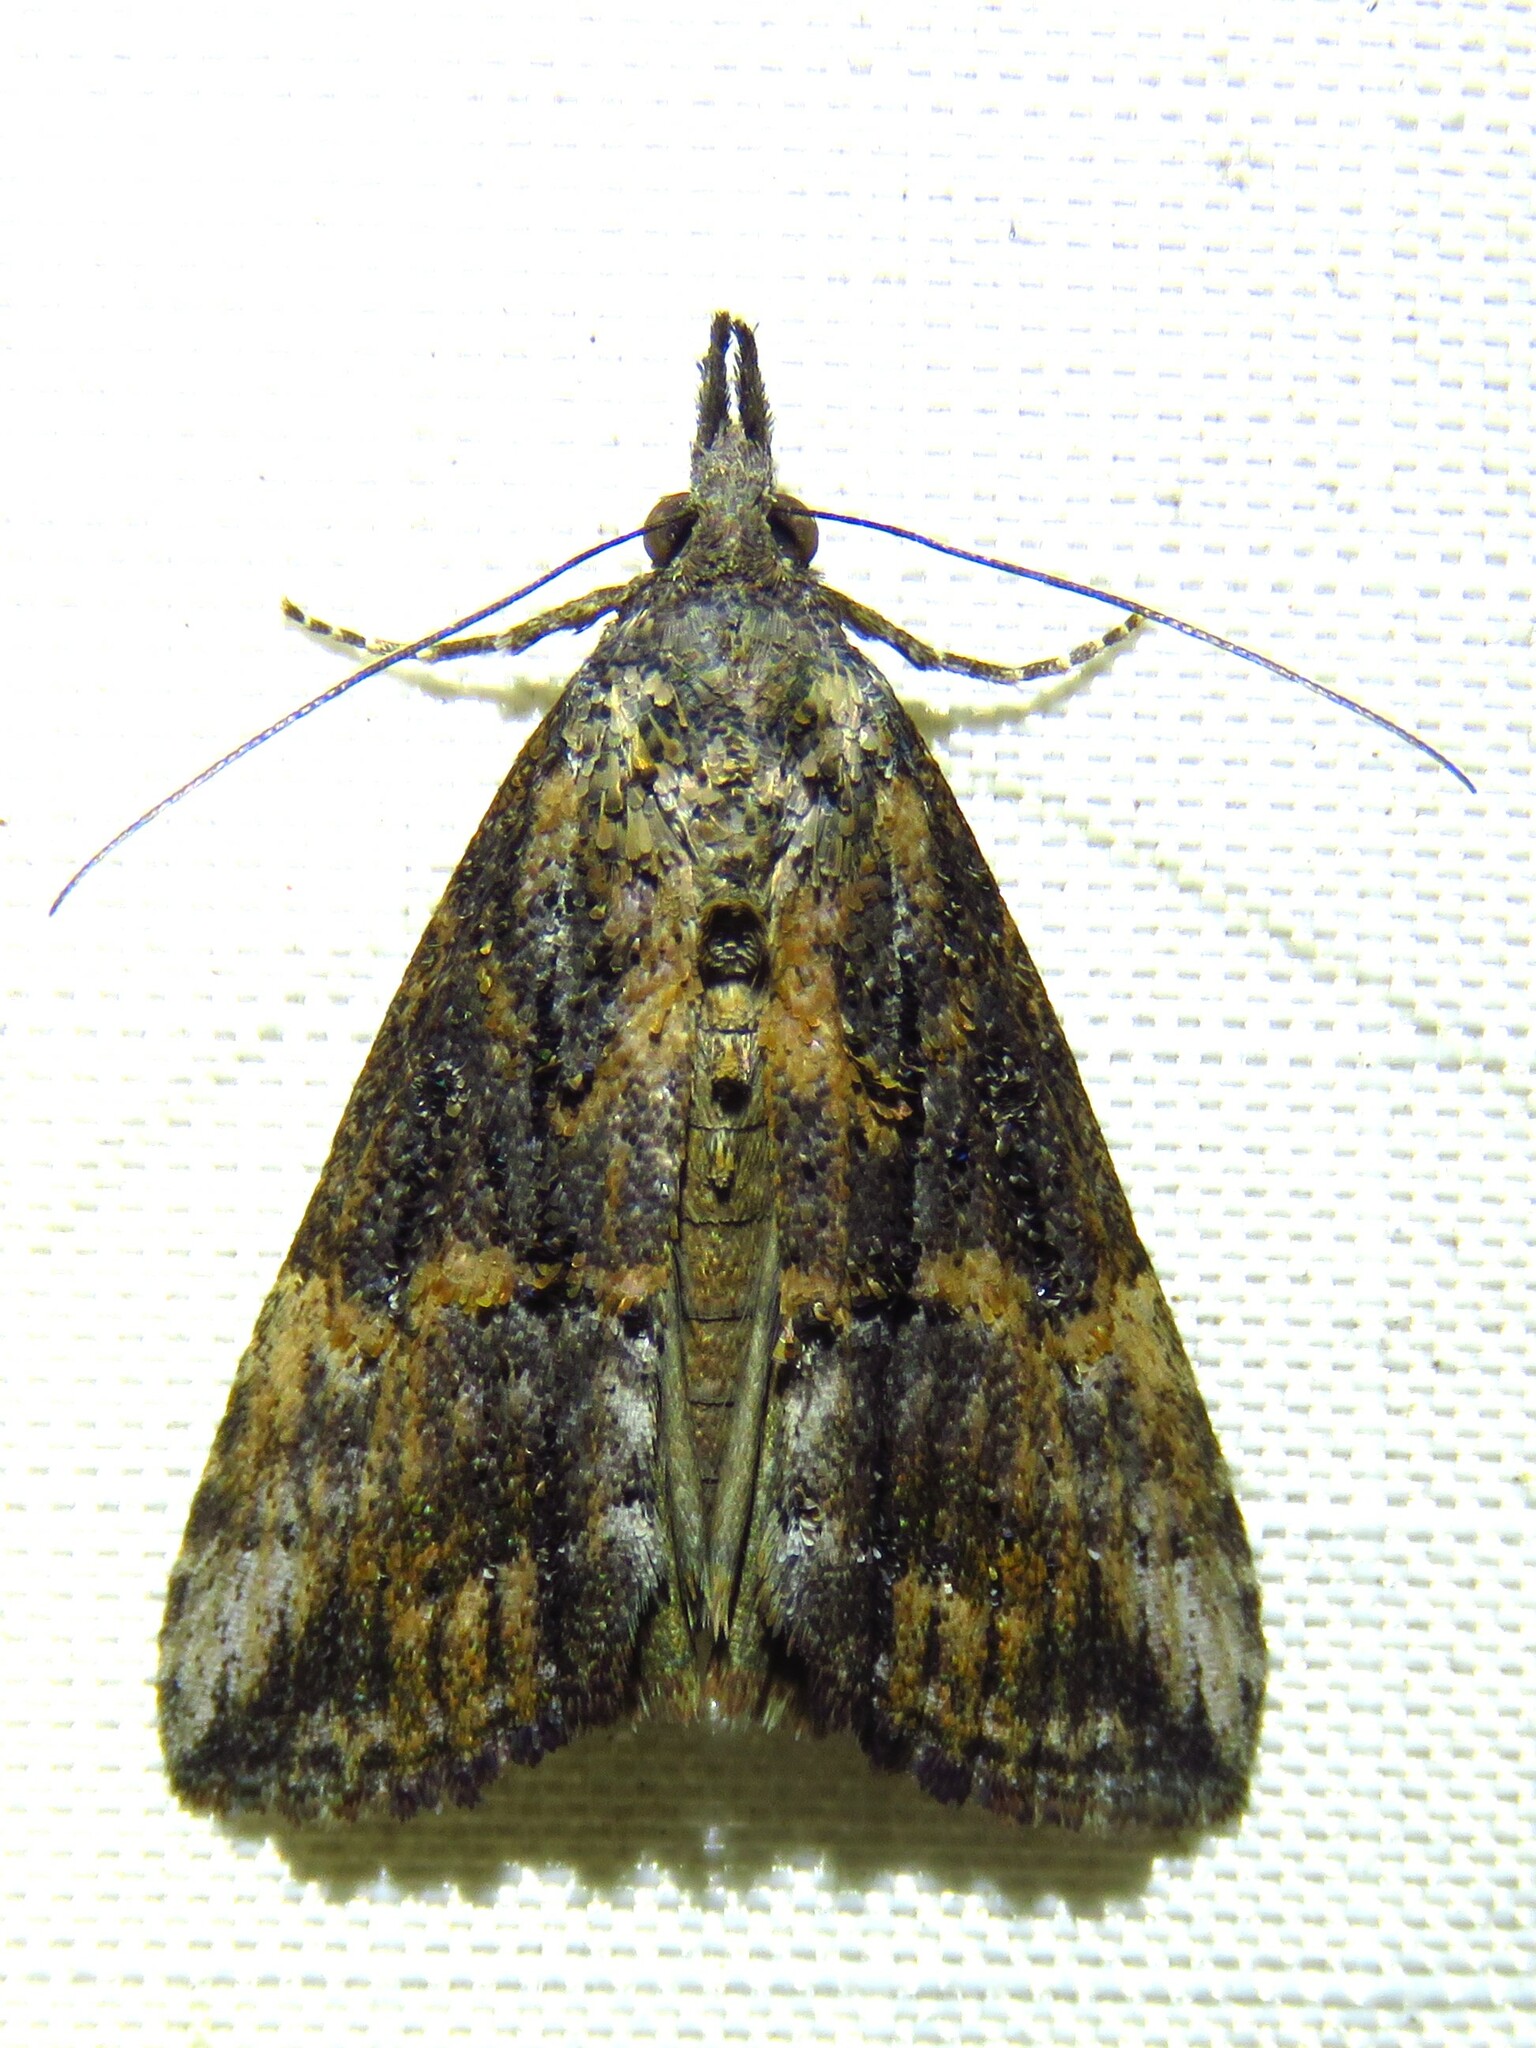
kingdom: Animalia
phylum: Arthropoda
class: Insecta
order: Lepidoptera
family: Erebidae
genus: Hypena
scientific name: Hypena scabra
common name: Green cloverworm
